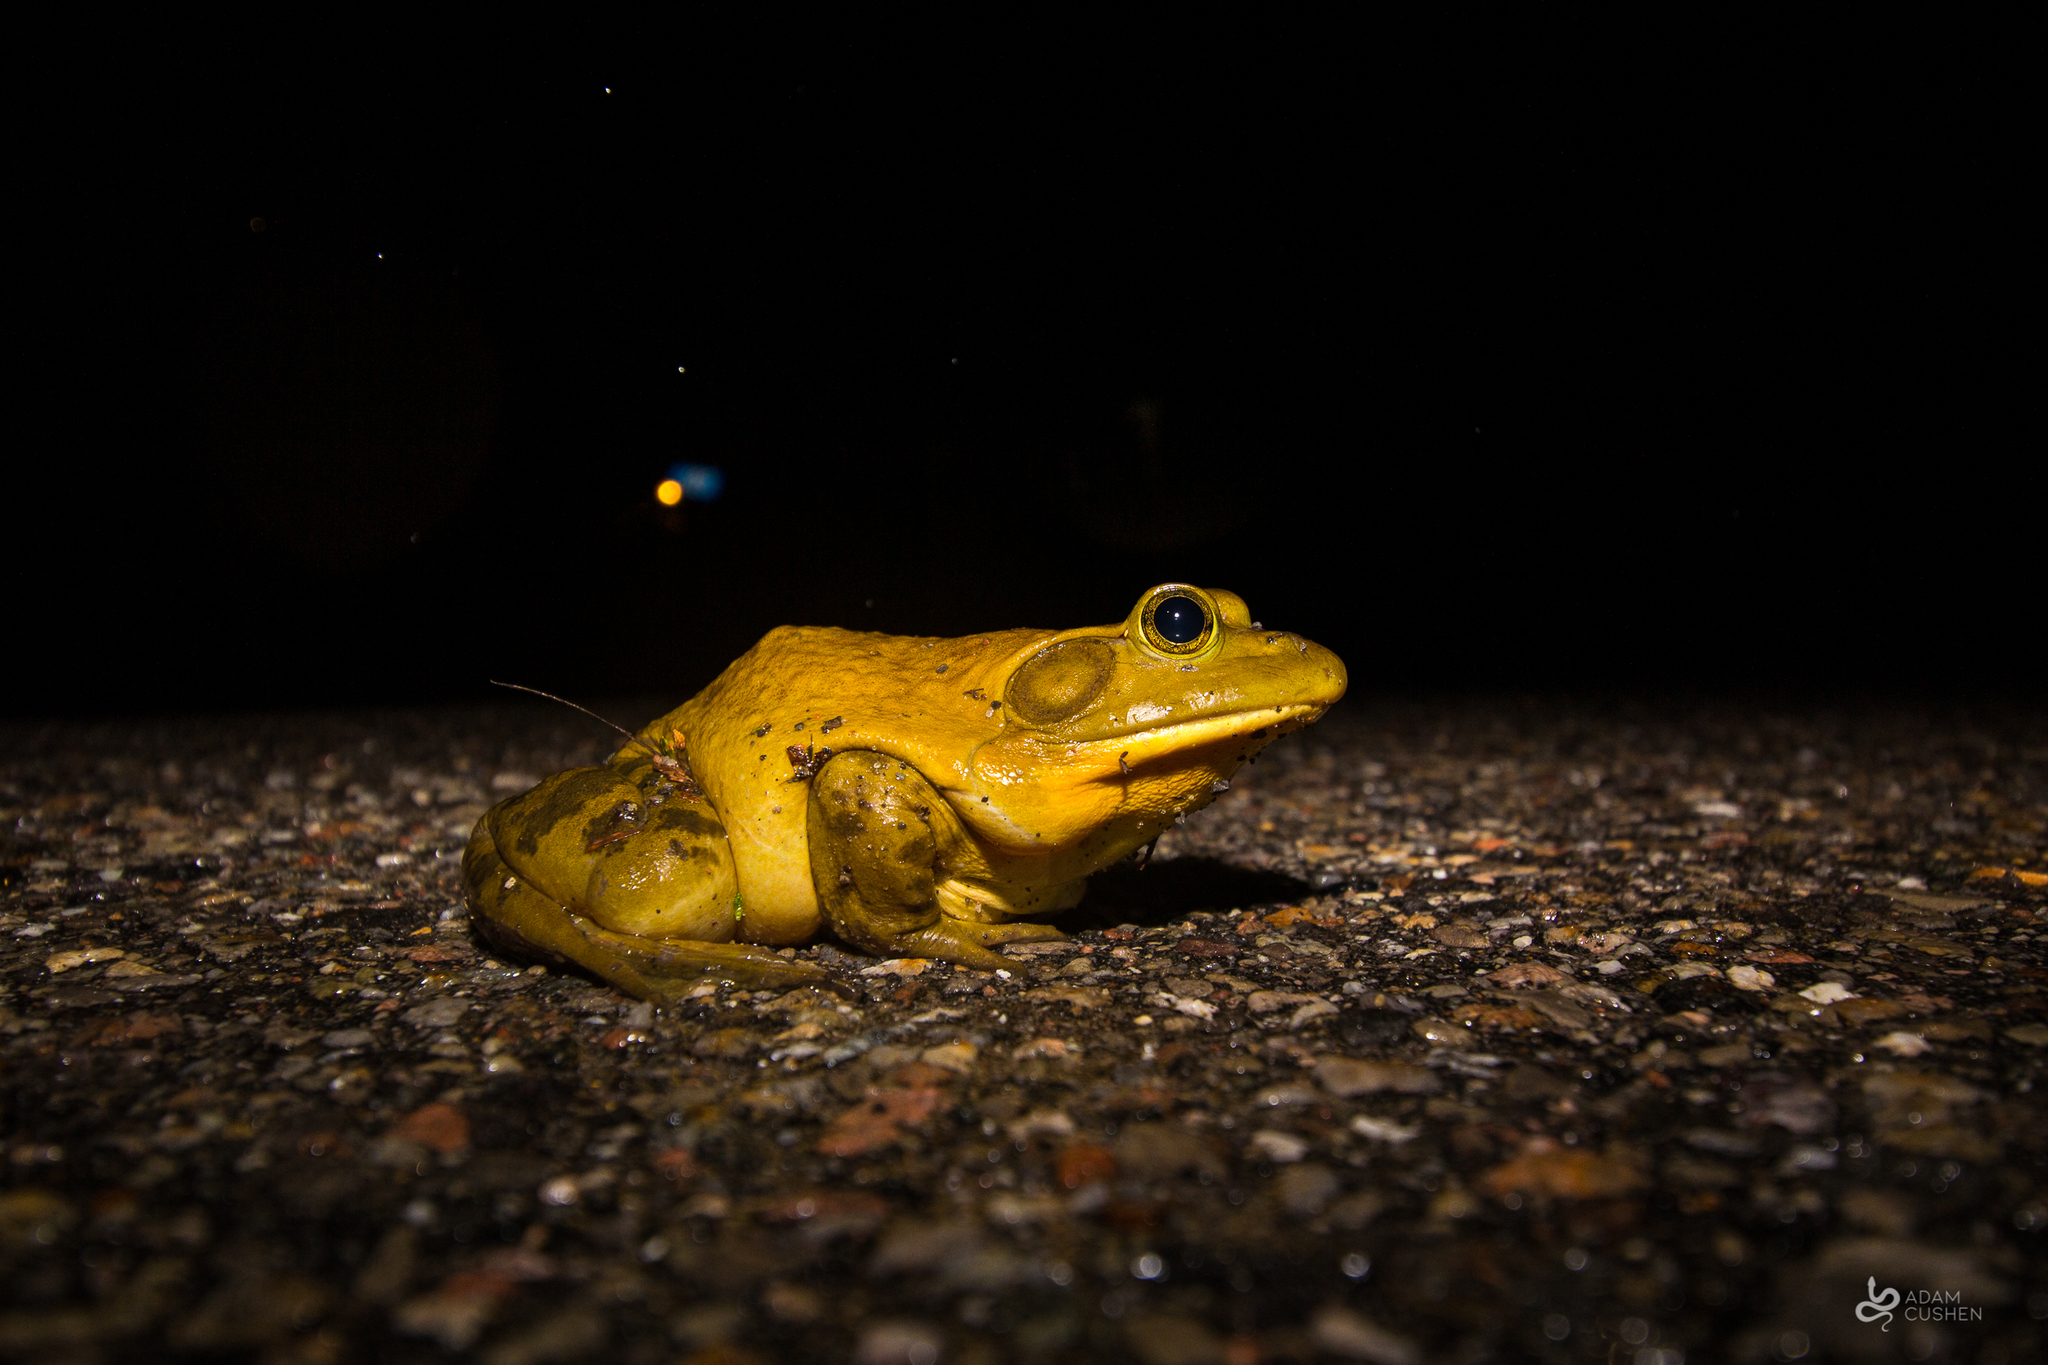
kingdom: Animalia
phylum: Chordata
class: Amphibia
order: Anura
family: Ranidae
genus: Lithobates
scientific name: Lithobates catesbeianus
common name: American bullfrog
